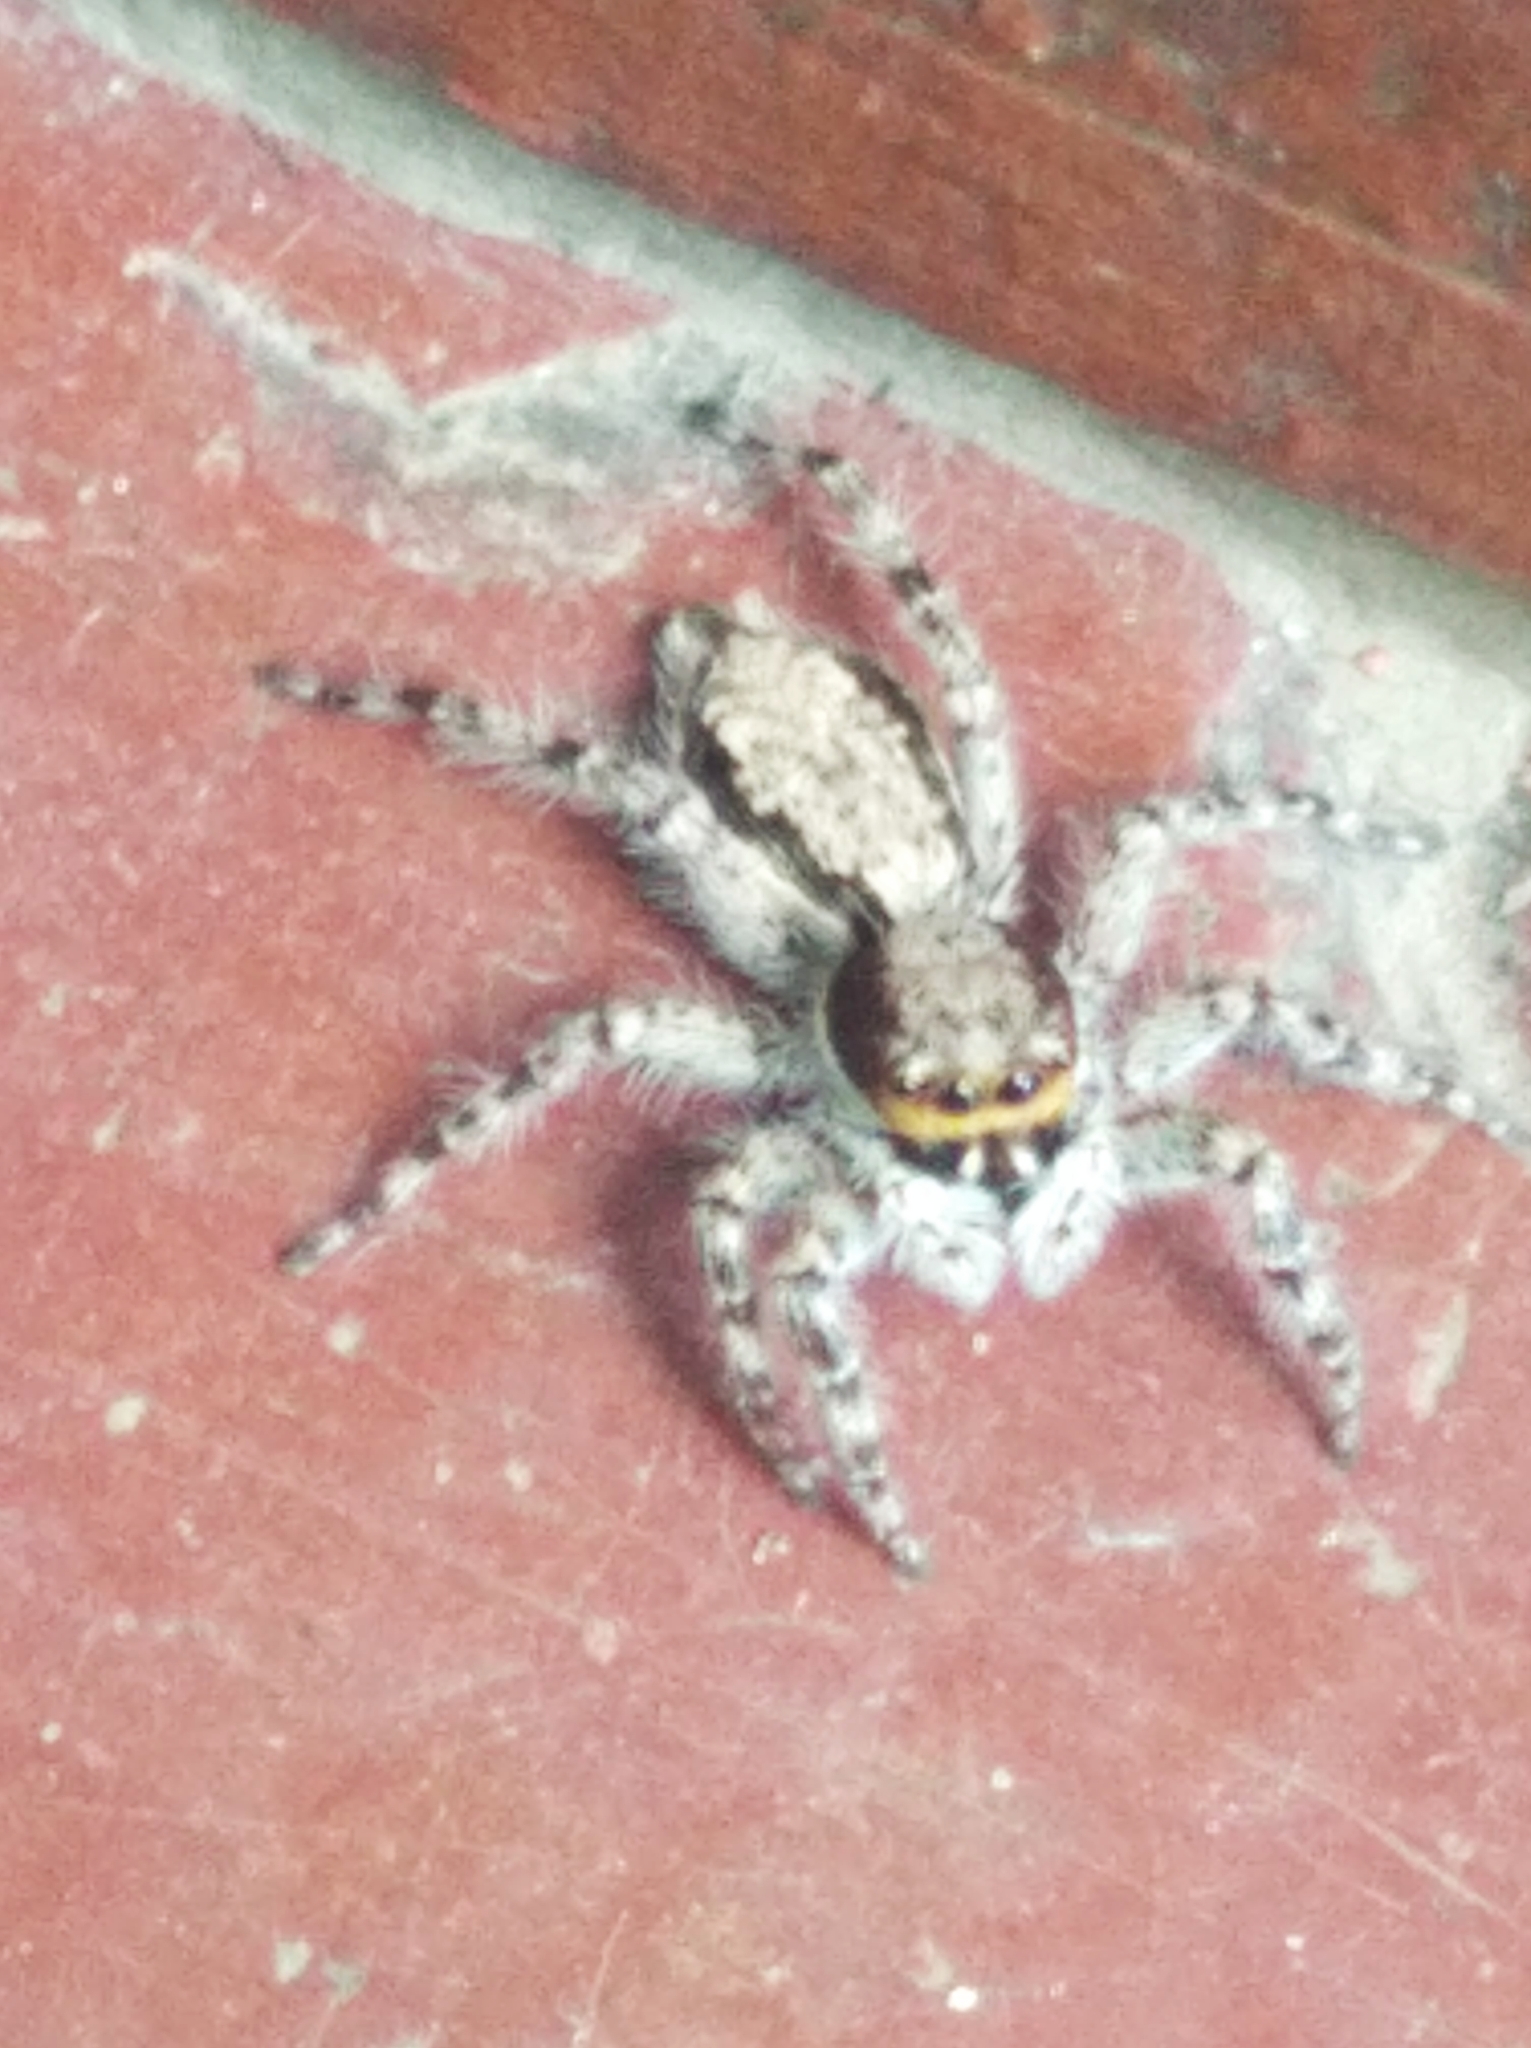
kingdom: Animalia
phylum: Arthropoda
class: Arachnida
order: Araneae
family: Salticidae
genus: Menemerus
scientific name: Menemerus bivittatus
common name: Gray wall jumper
